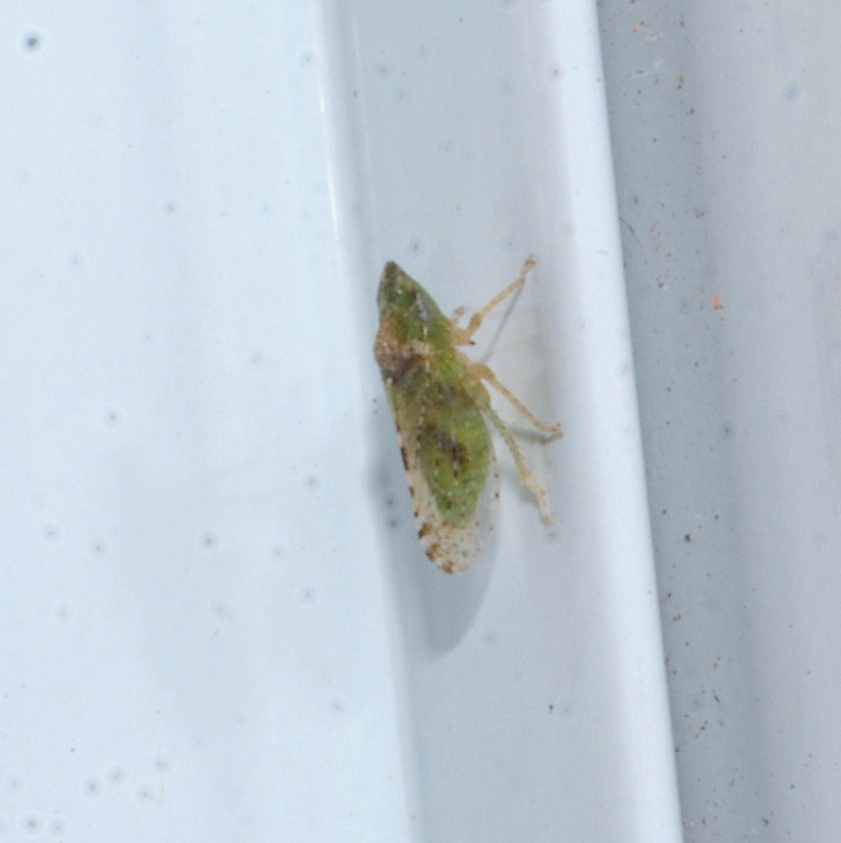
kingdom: Animalia
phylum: Arthropoda
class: Insecta
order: Hemiptera
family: Cicadellidae
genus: Xerophloea
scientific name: Xerophloea peltata
